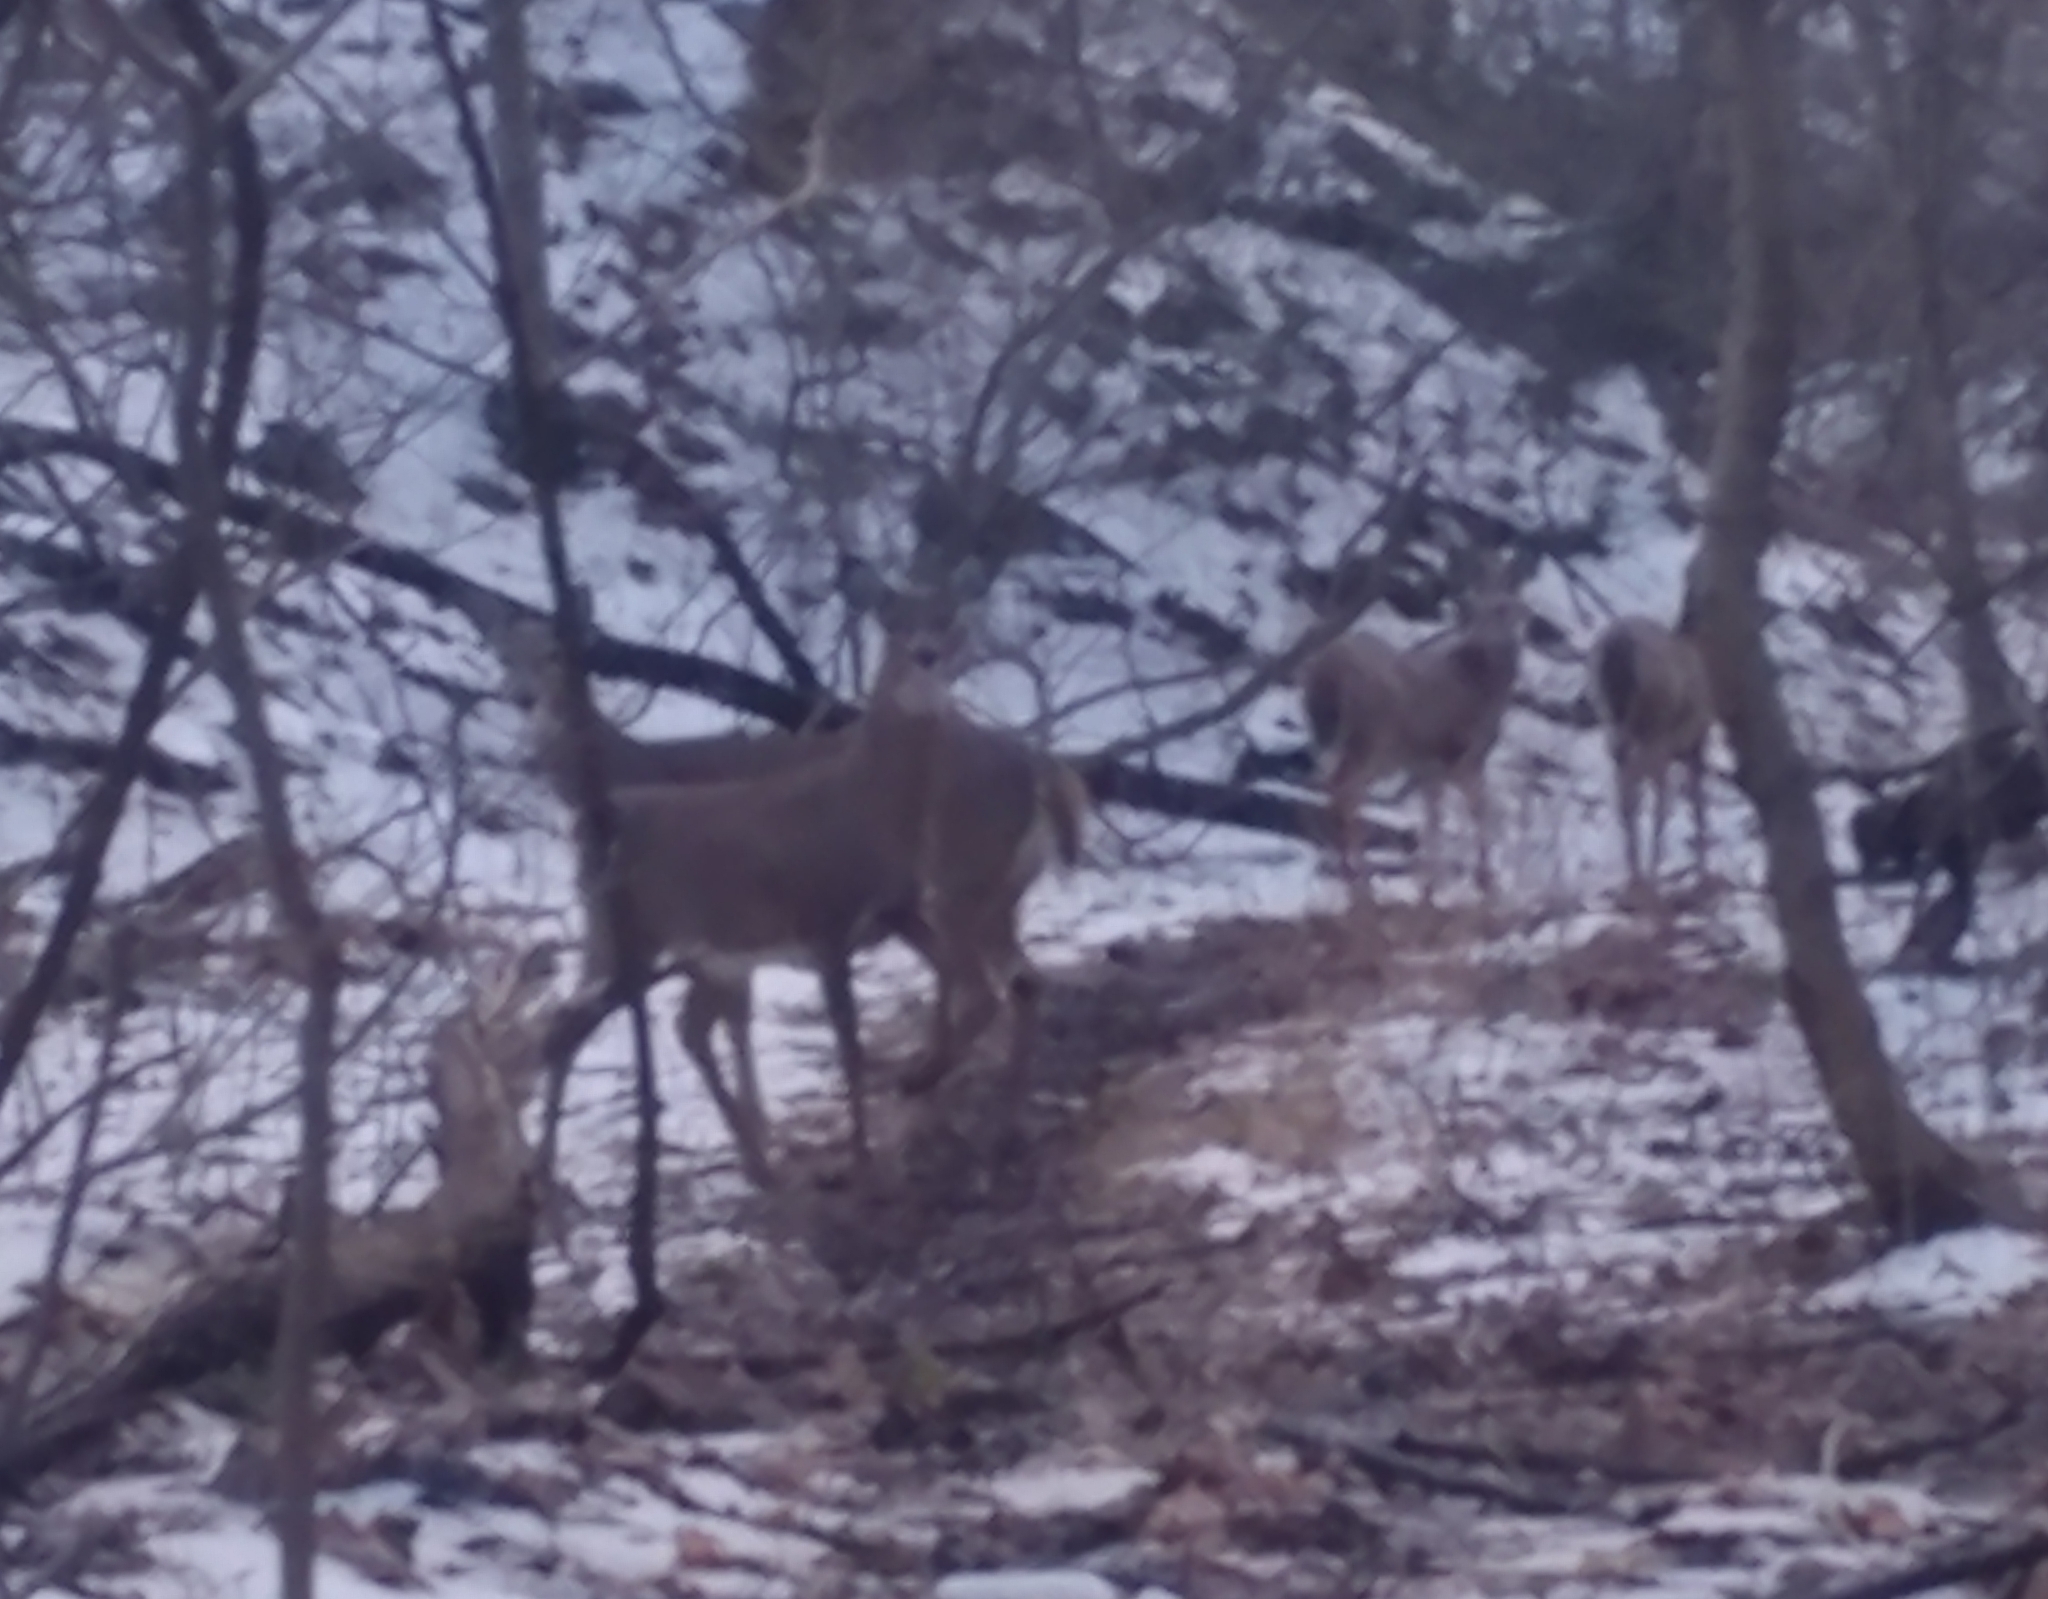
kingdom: Animalia
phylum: Chordata
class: Mammalia
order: Artiodactyla
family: Cervidae
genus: Odocoileus
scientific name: Odocoileus virginianus
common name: White-tailed deer
